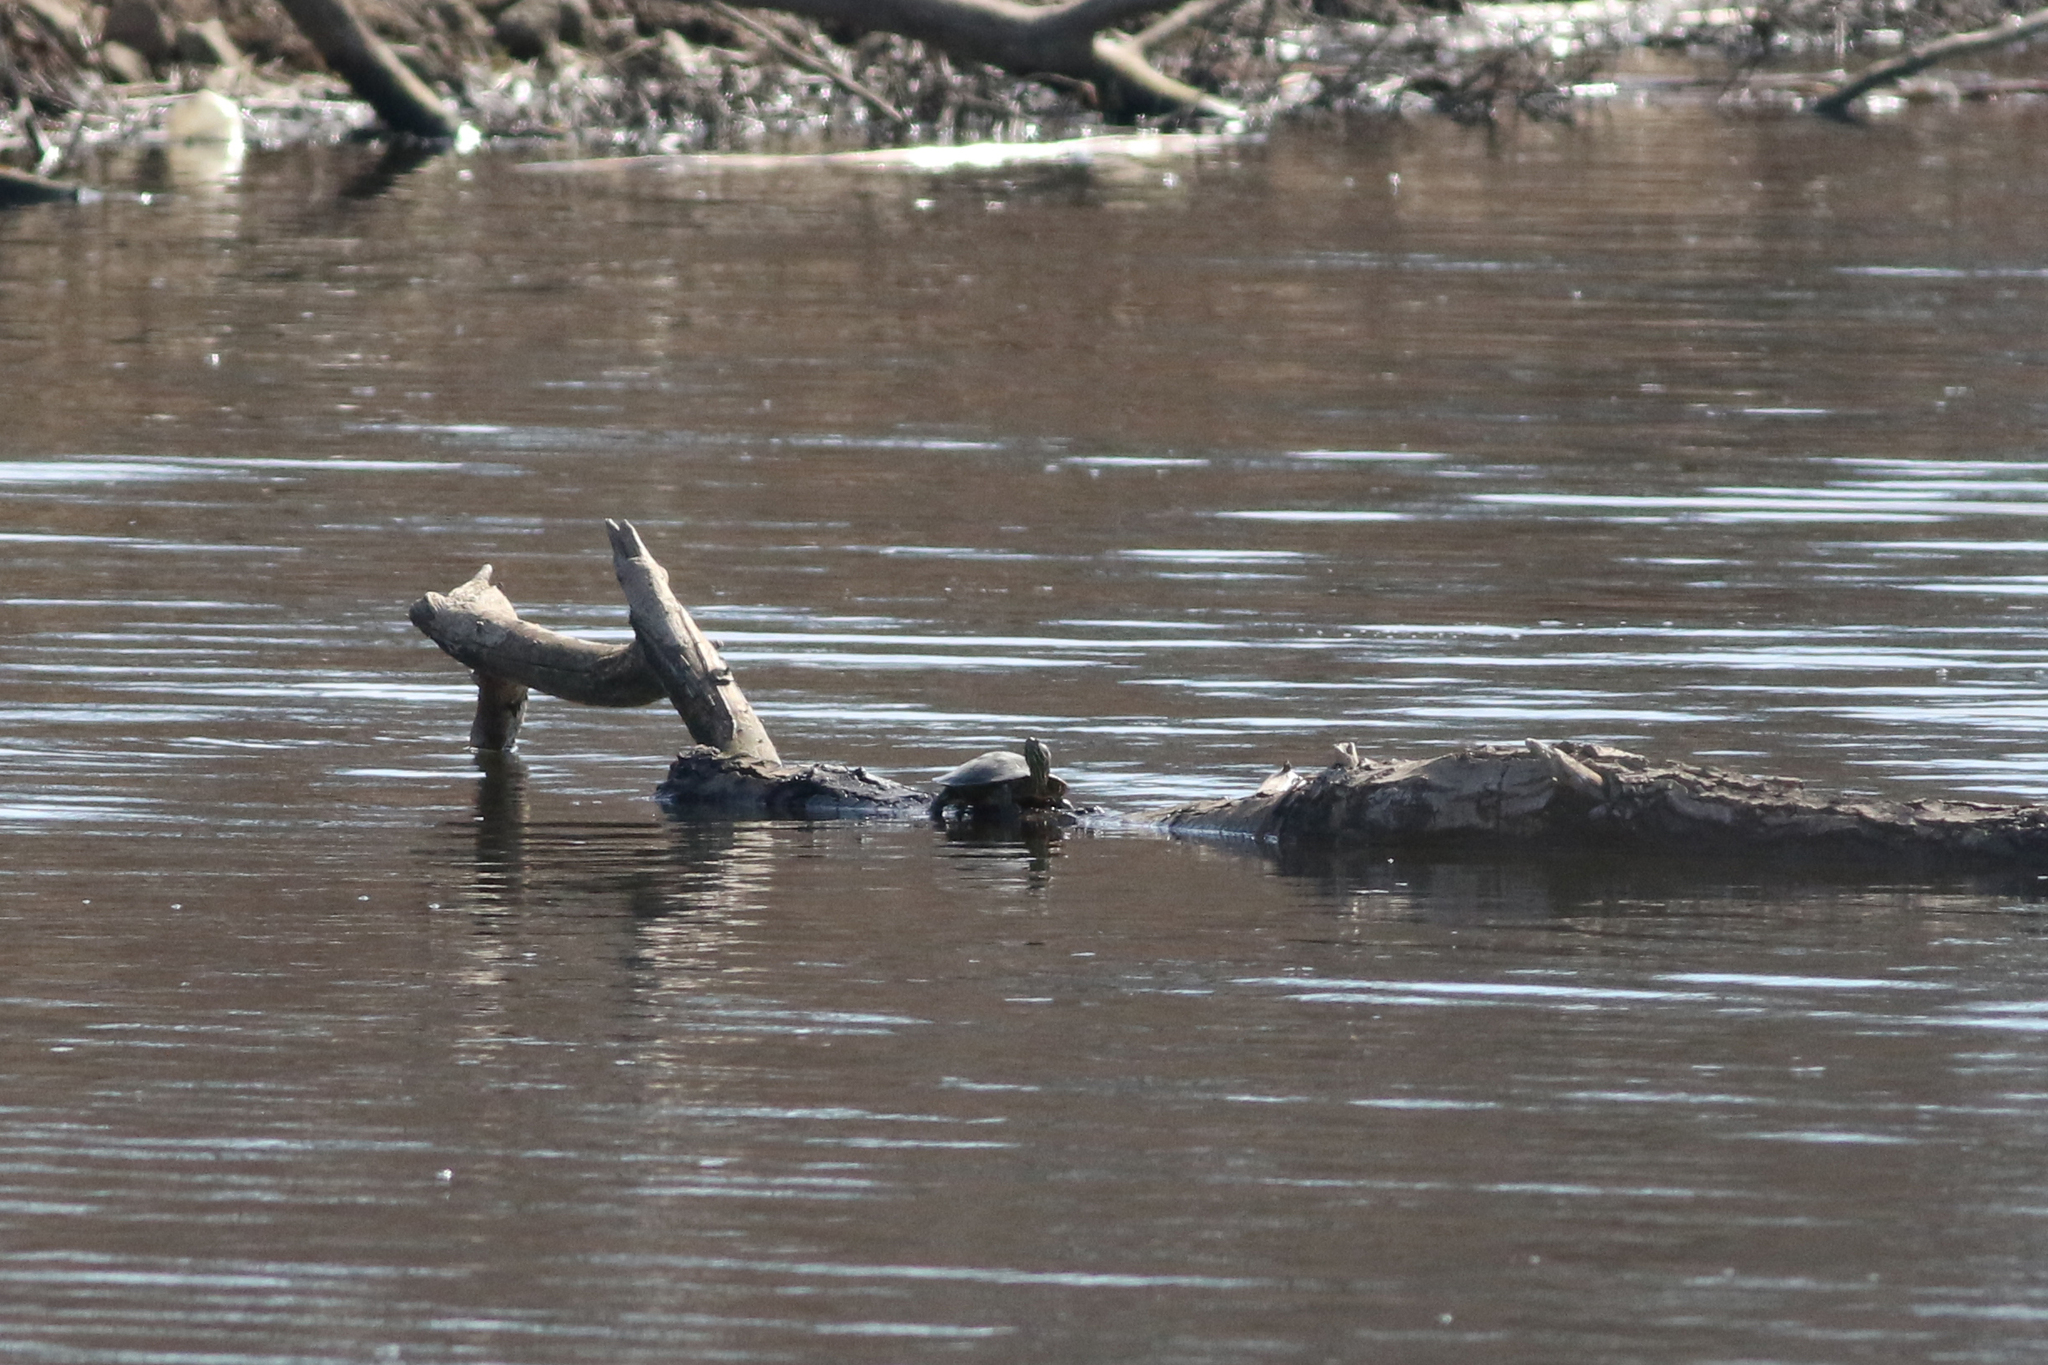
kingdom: Animalia
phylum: Chordata
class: Testudines
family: Emydidae
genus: Chrysemys
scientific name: Chrysemys picta
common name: Painted turtle
